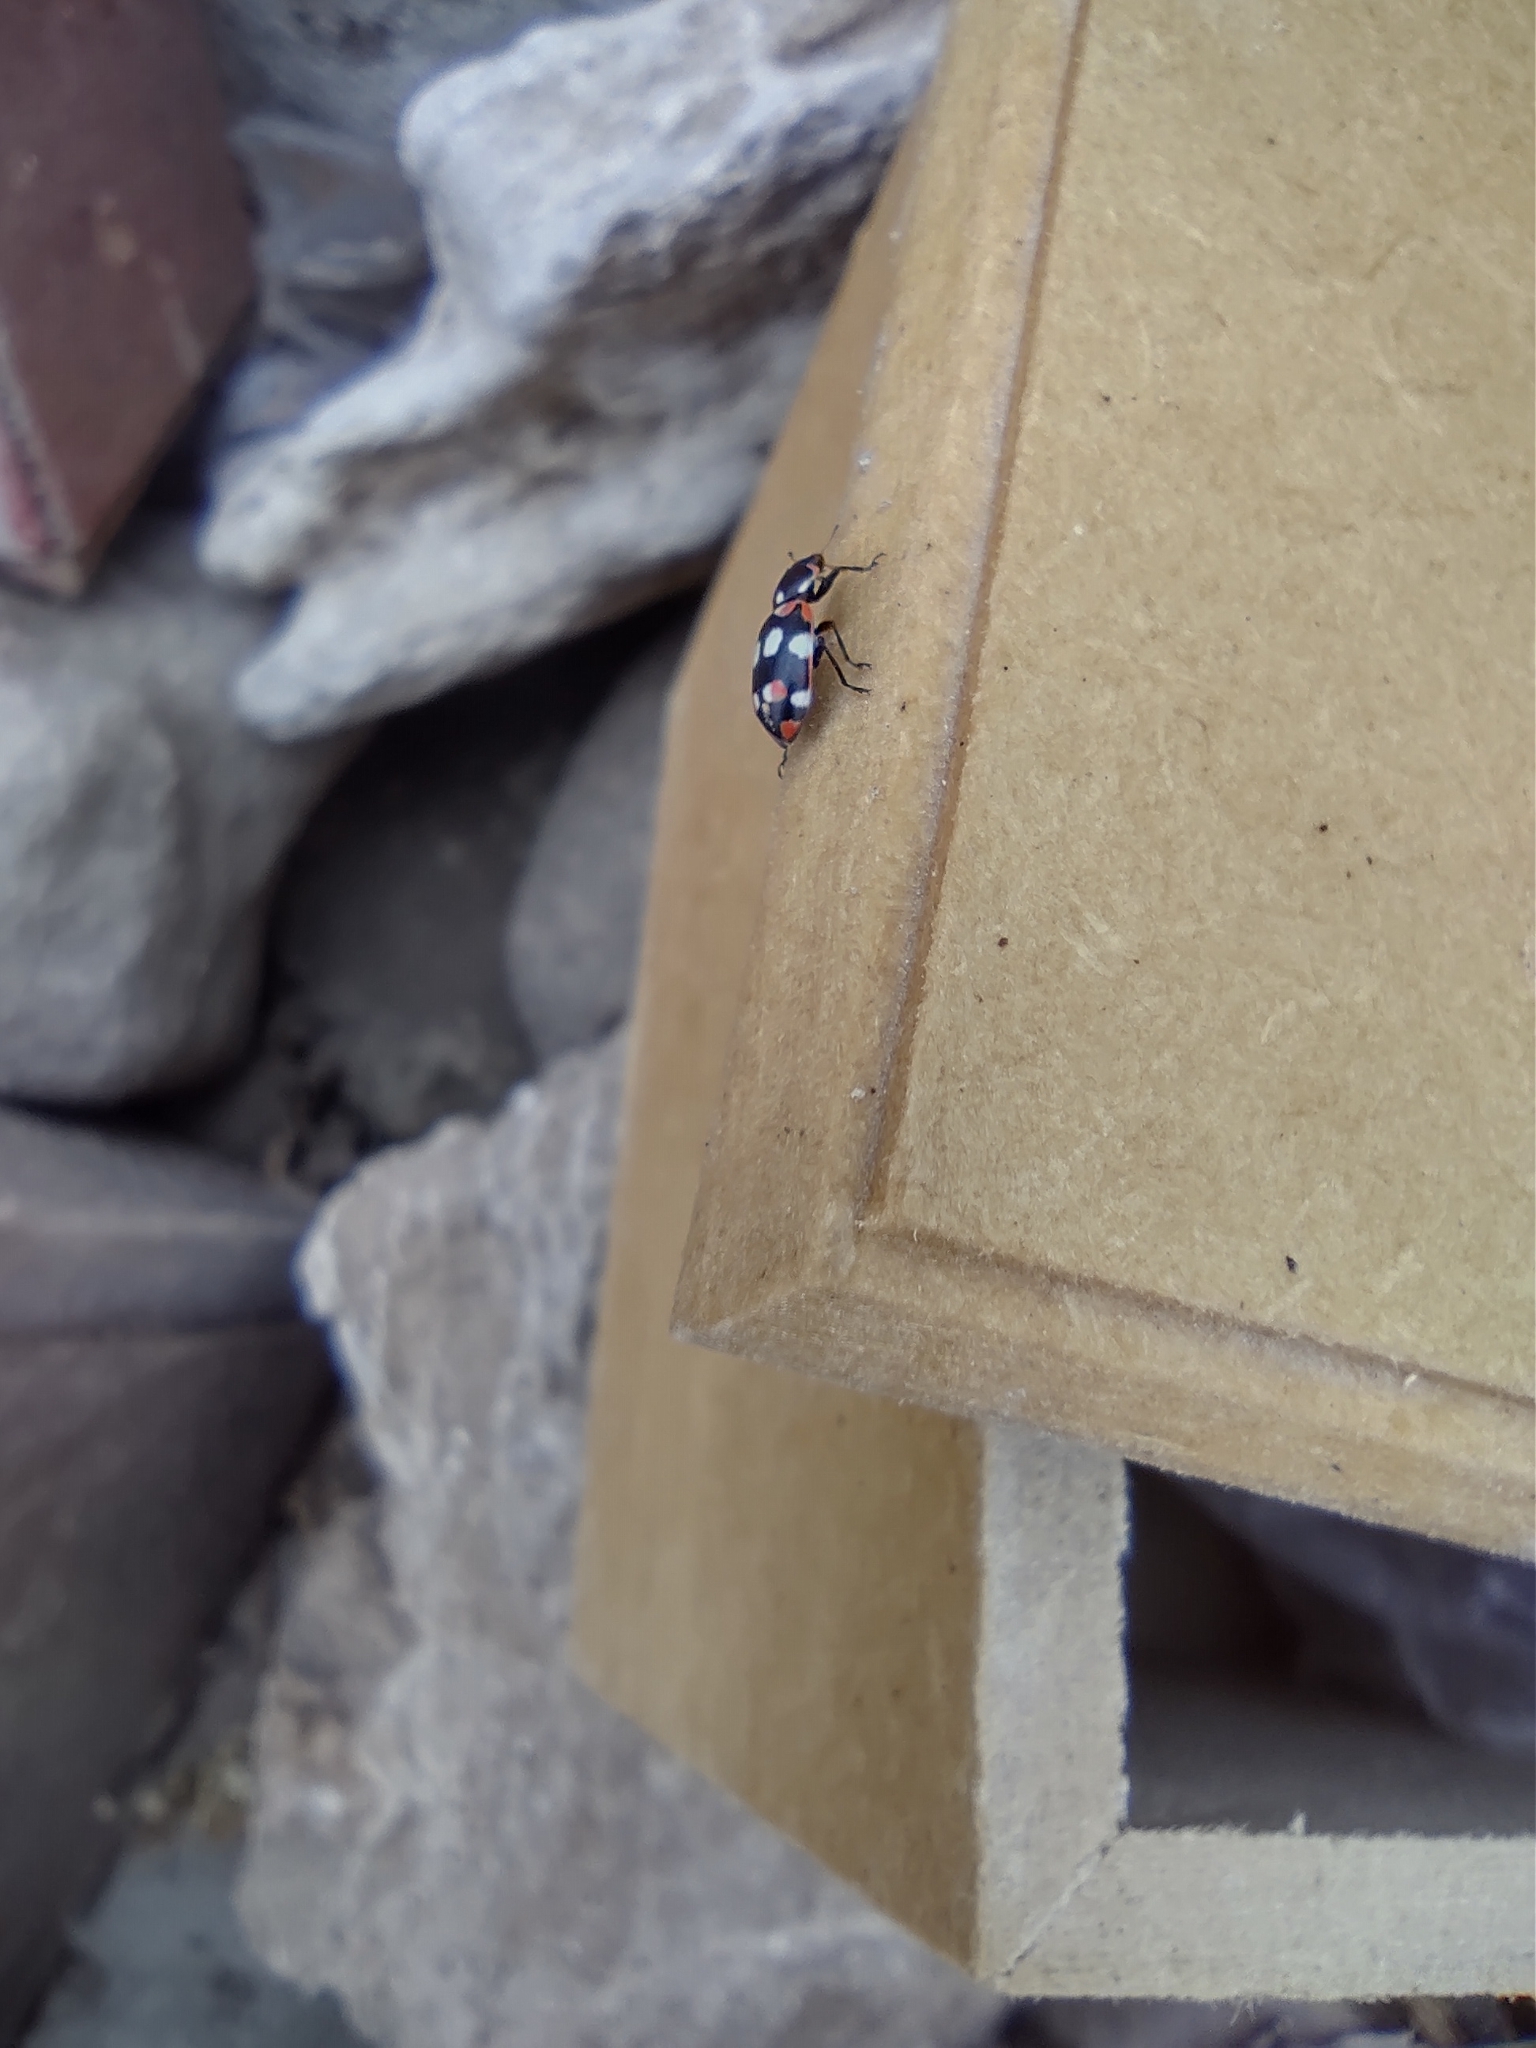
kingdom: Animalia
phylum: Arthropoda
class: Insecta
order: Coleoptera
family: Coccinellidae
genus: Eriopis
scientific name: Eriopis connexa
